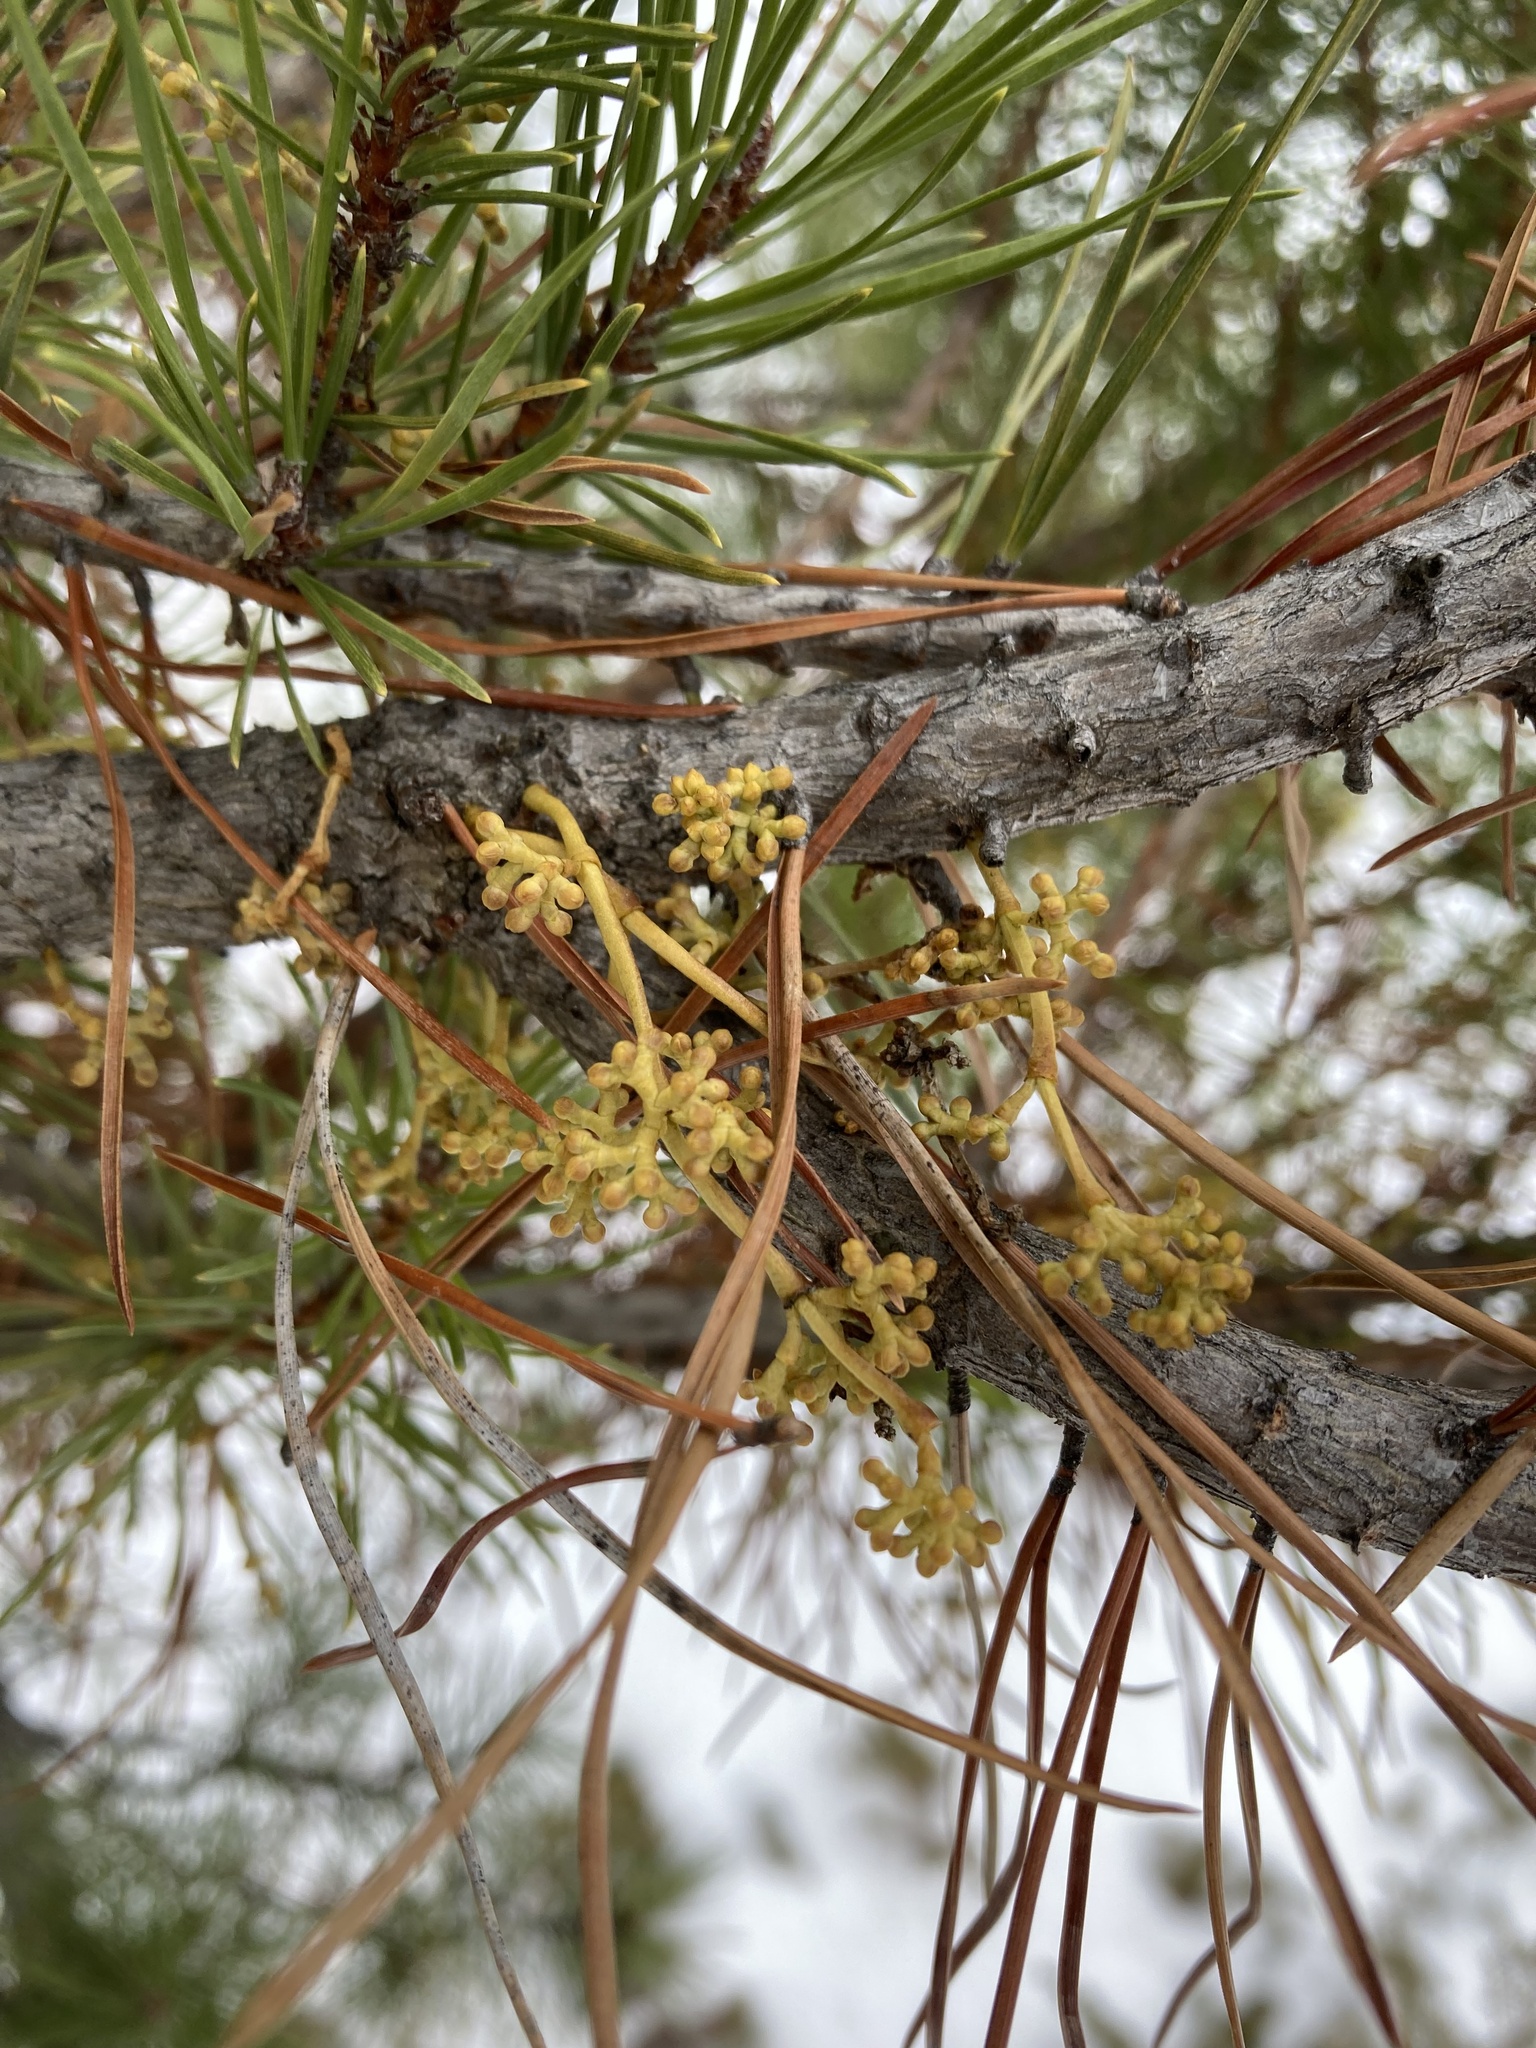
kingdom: Plantae
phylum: Tracheophyta
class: Magnoliopsida
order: Santalales
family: Viscaceae
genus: Arceuthobium
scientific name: Arceuthobium americanum
